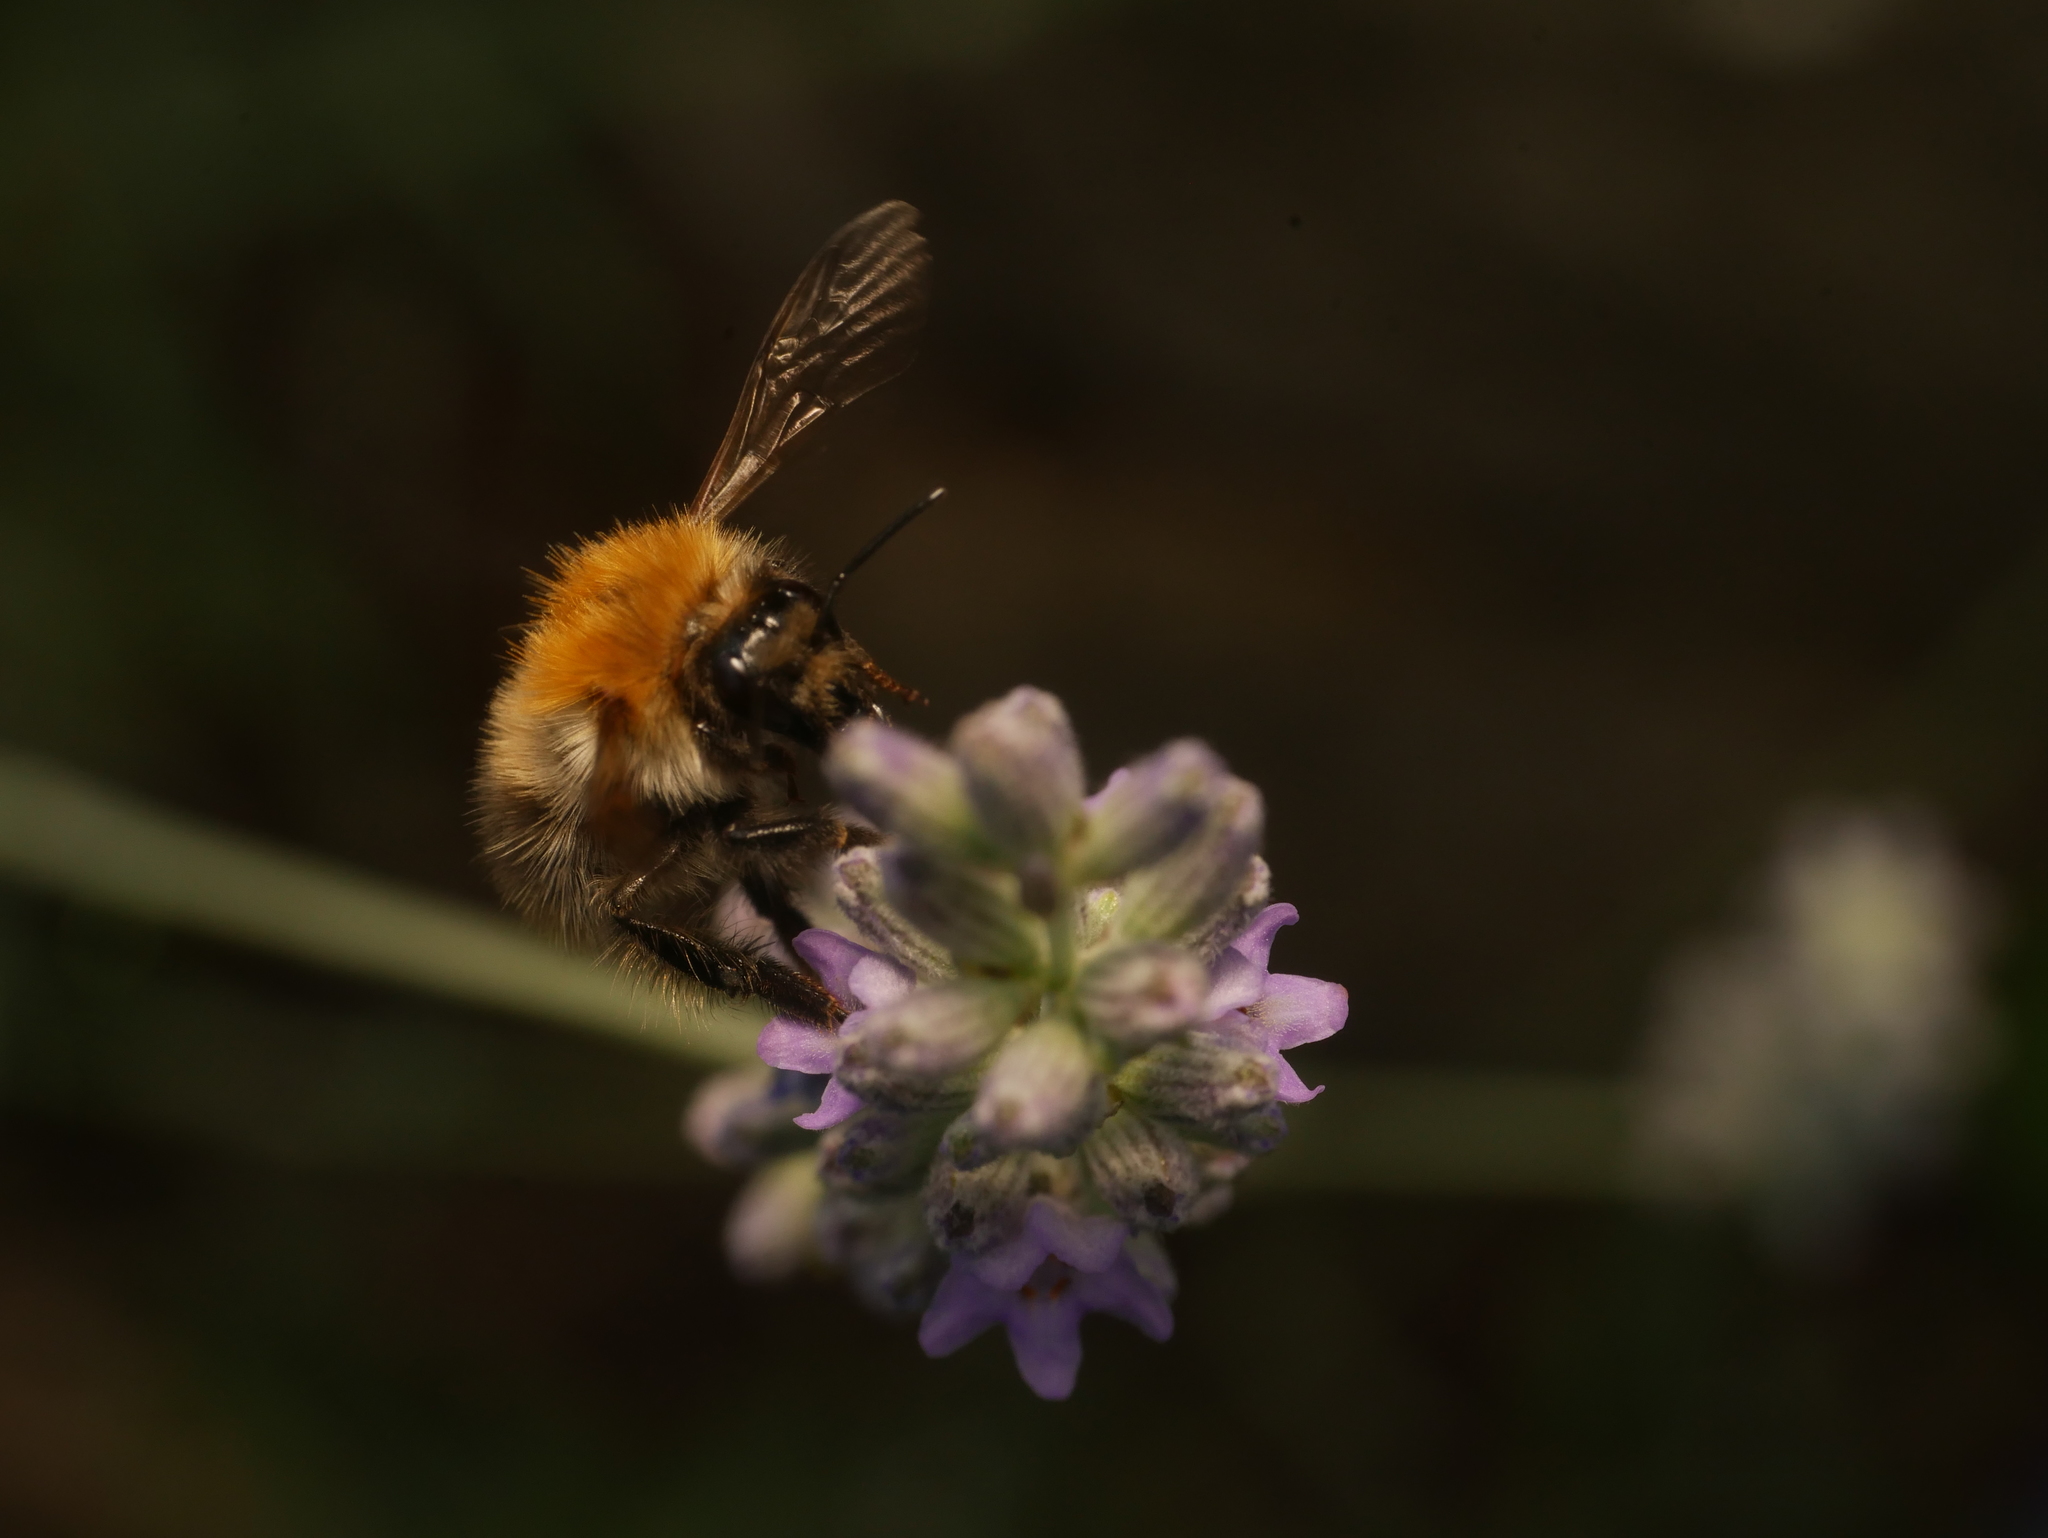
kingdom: Animalia
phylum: Arthropoda
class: Insecta
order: Hymenoptera
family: Apidae
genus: Bombus
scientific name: Bombus pascuorum
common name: Common carder bee
